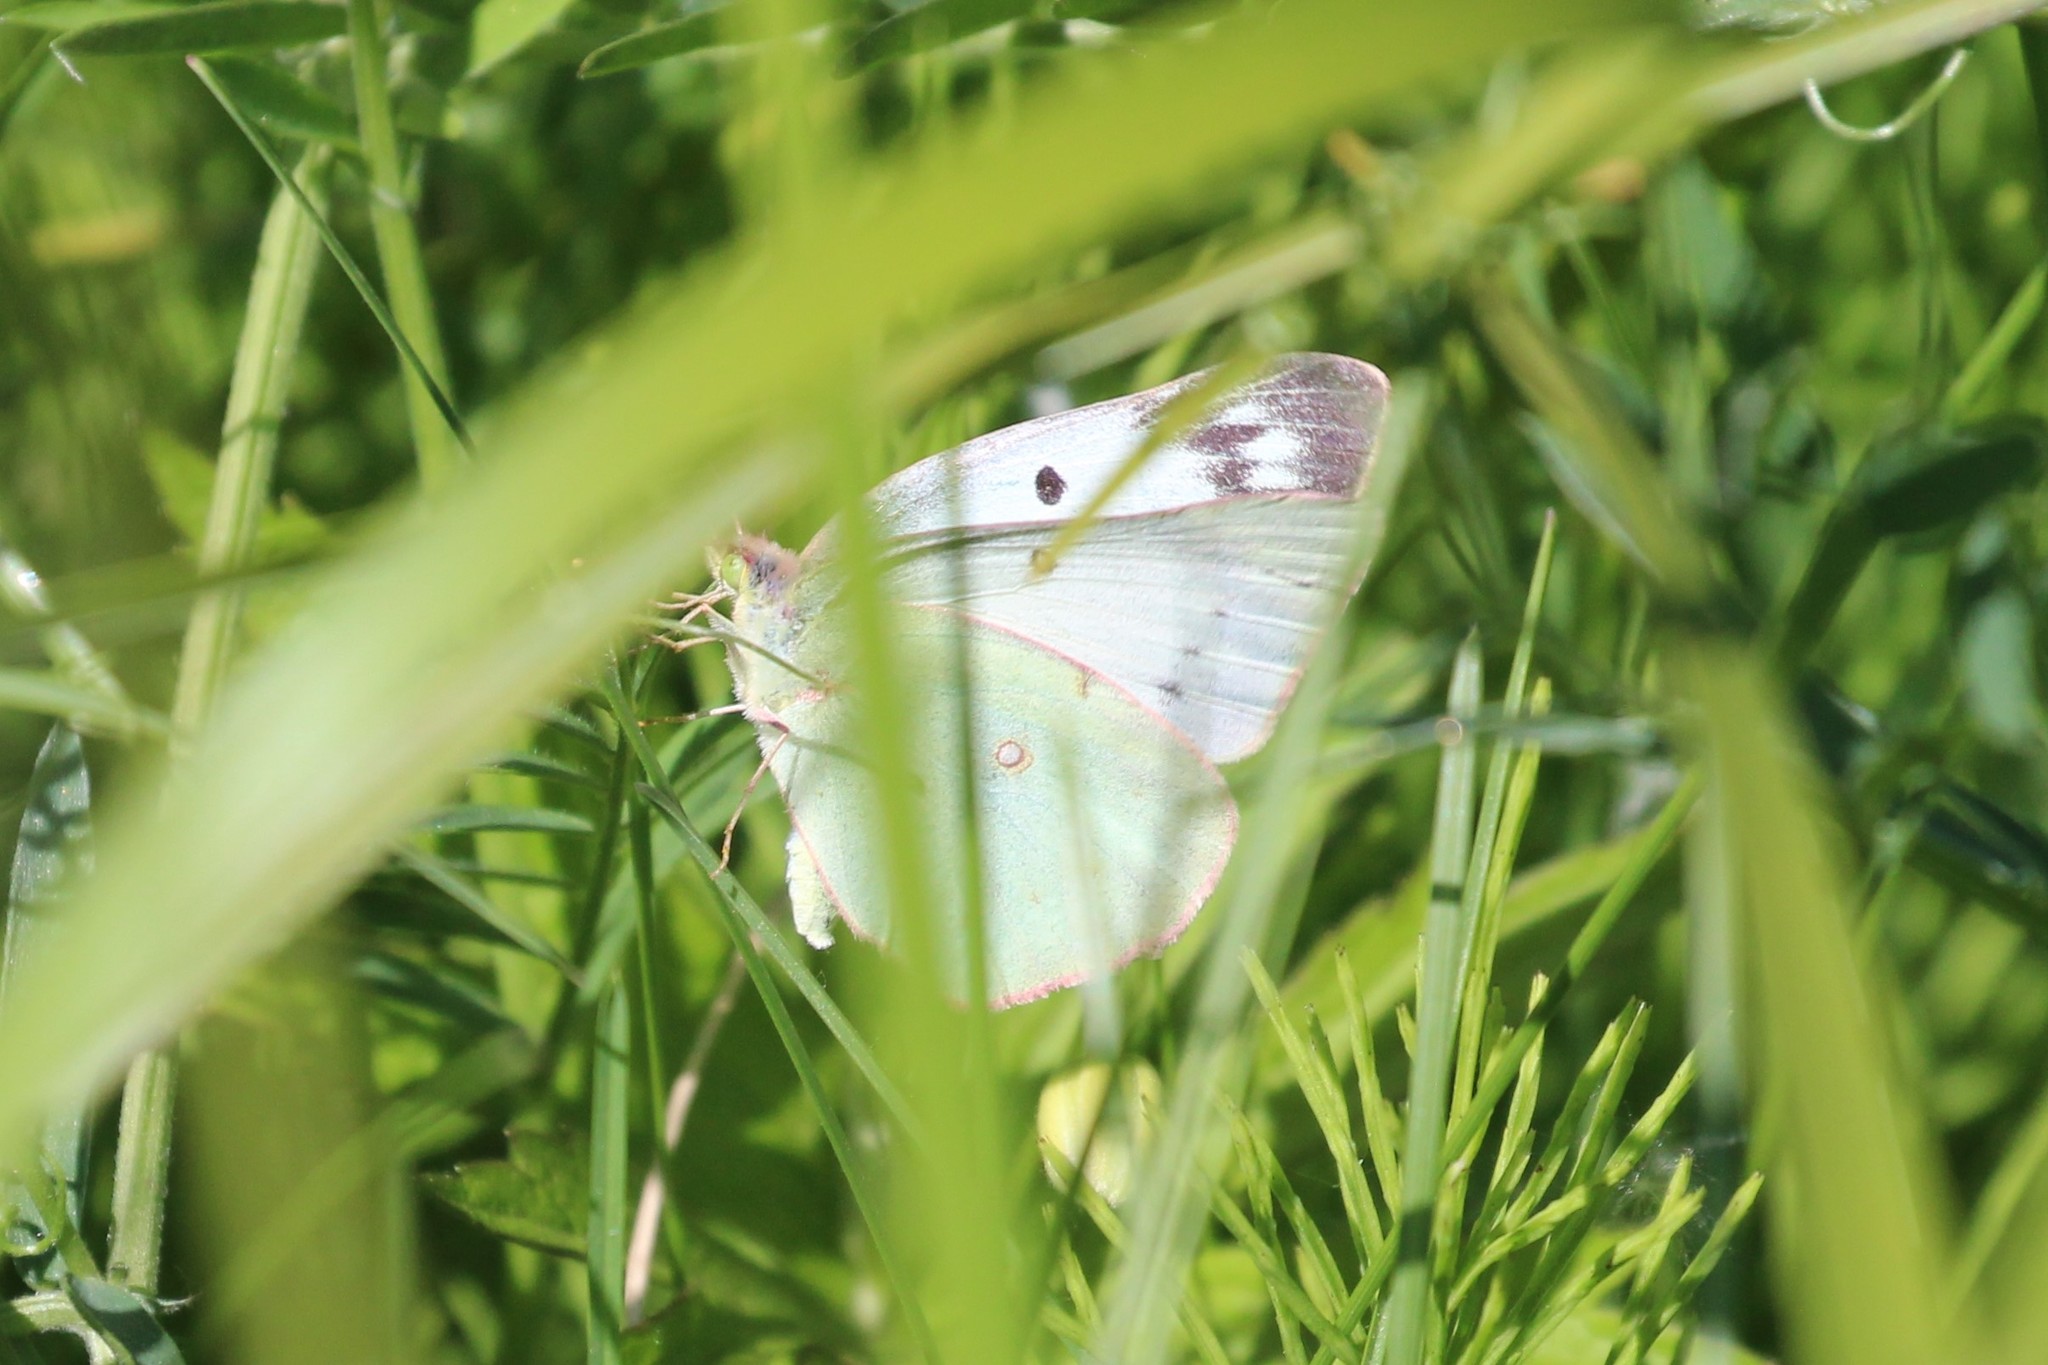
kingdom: Animalia
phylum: Arthropoda
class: Insecta
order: Lepidoptera
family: Pieridae
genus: Colias
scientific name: Colias philodice
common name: Clouded sulphur
